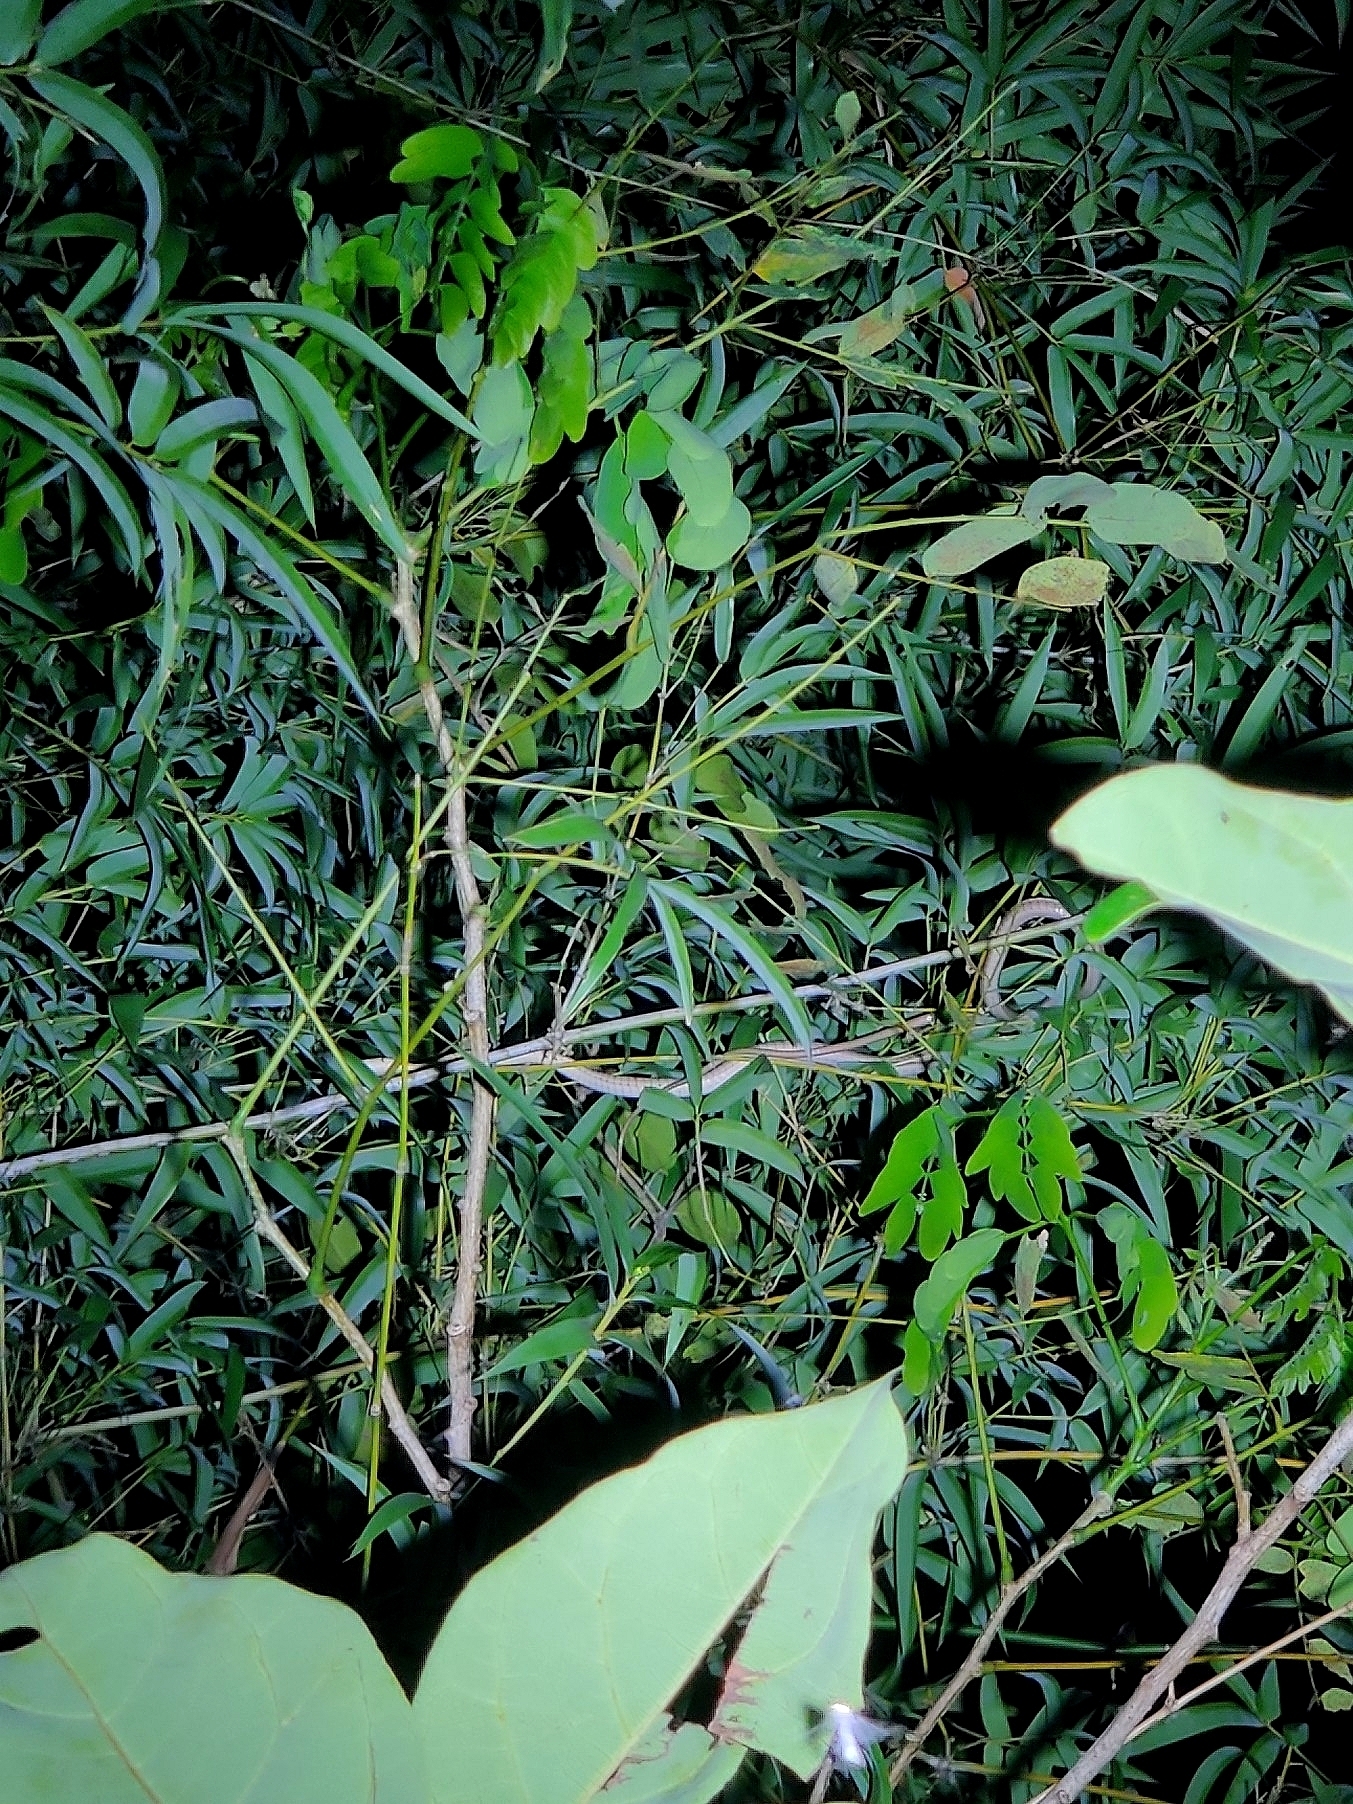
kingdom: Animalia
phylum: Chordata
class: Squamata
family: Colubridae
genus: Dendrelaphis
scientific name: Dendrelaphis tristis
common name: Daudin's bronzeback
